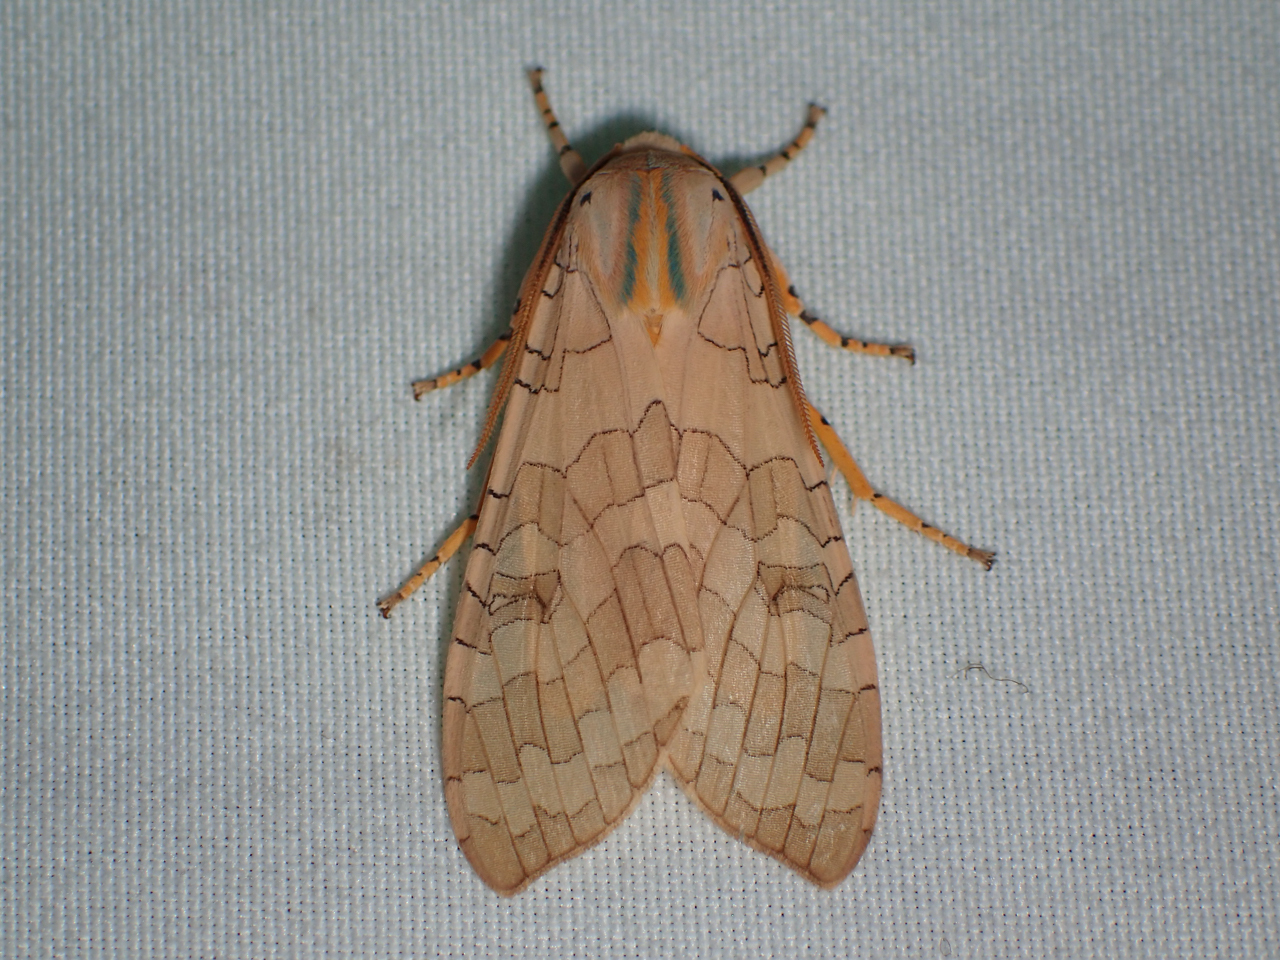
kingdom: Animalia
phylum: Arthropoda
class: Insecta
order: Lepidoptera
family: Erebidae
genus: Halysidota
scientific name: Halysidota
